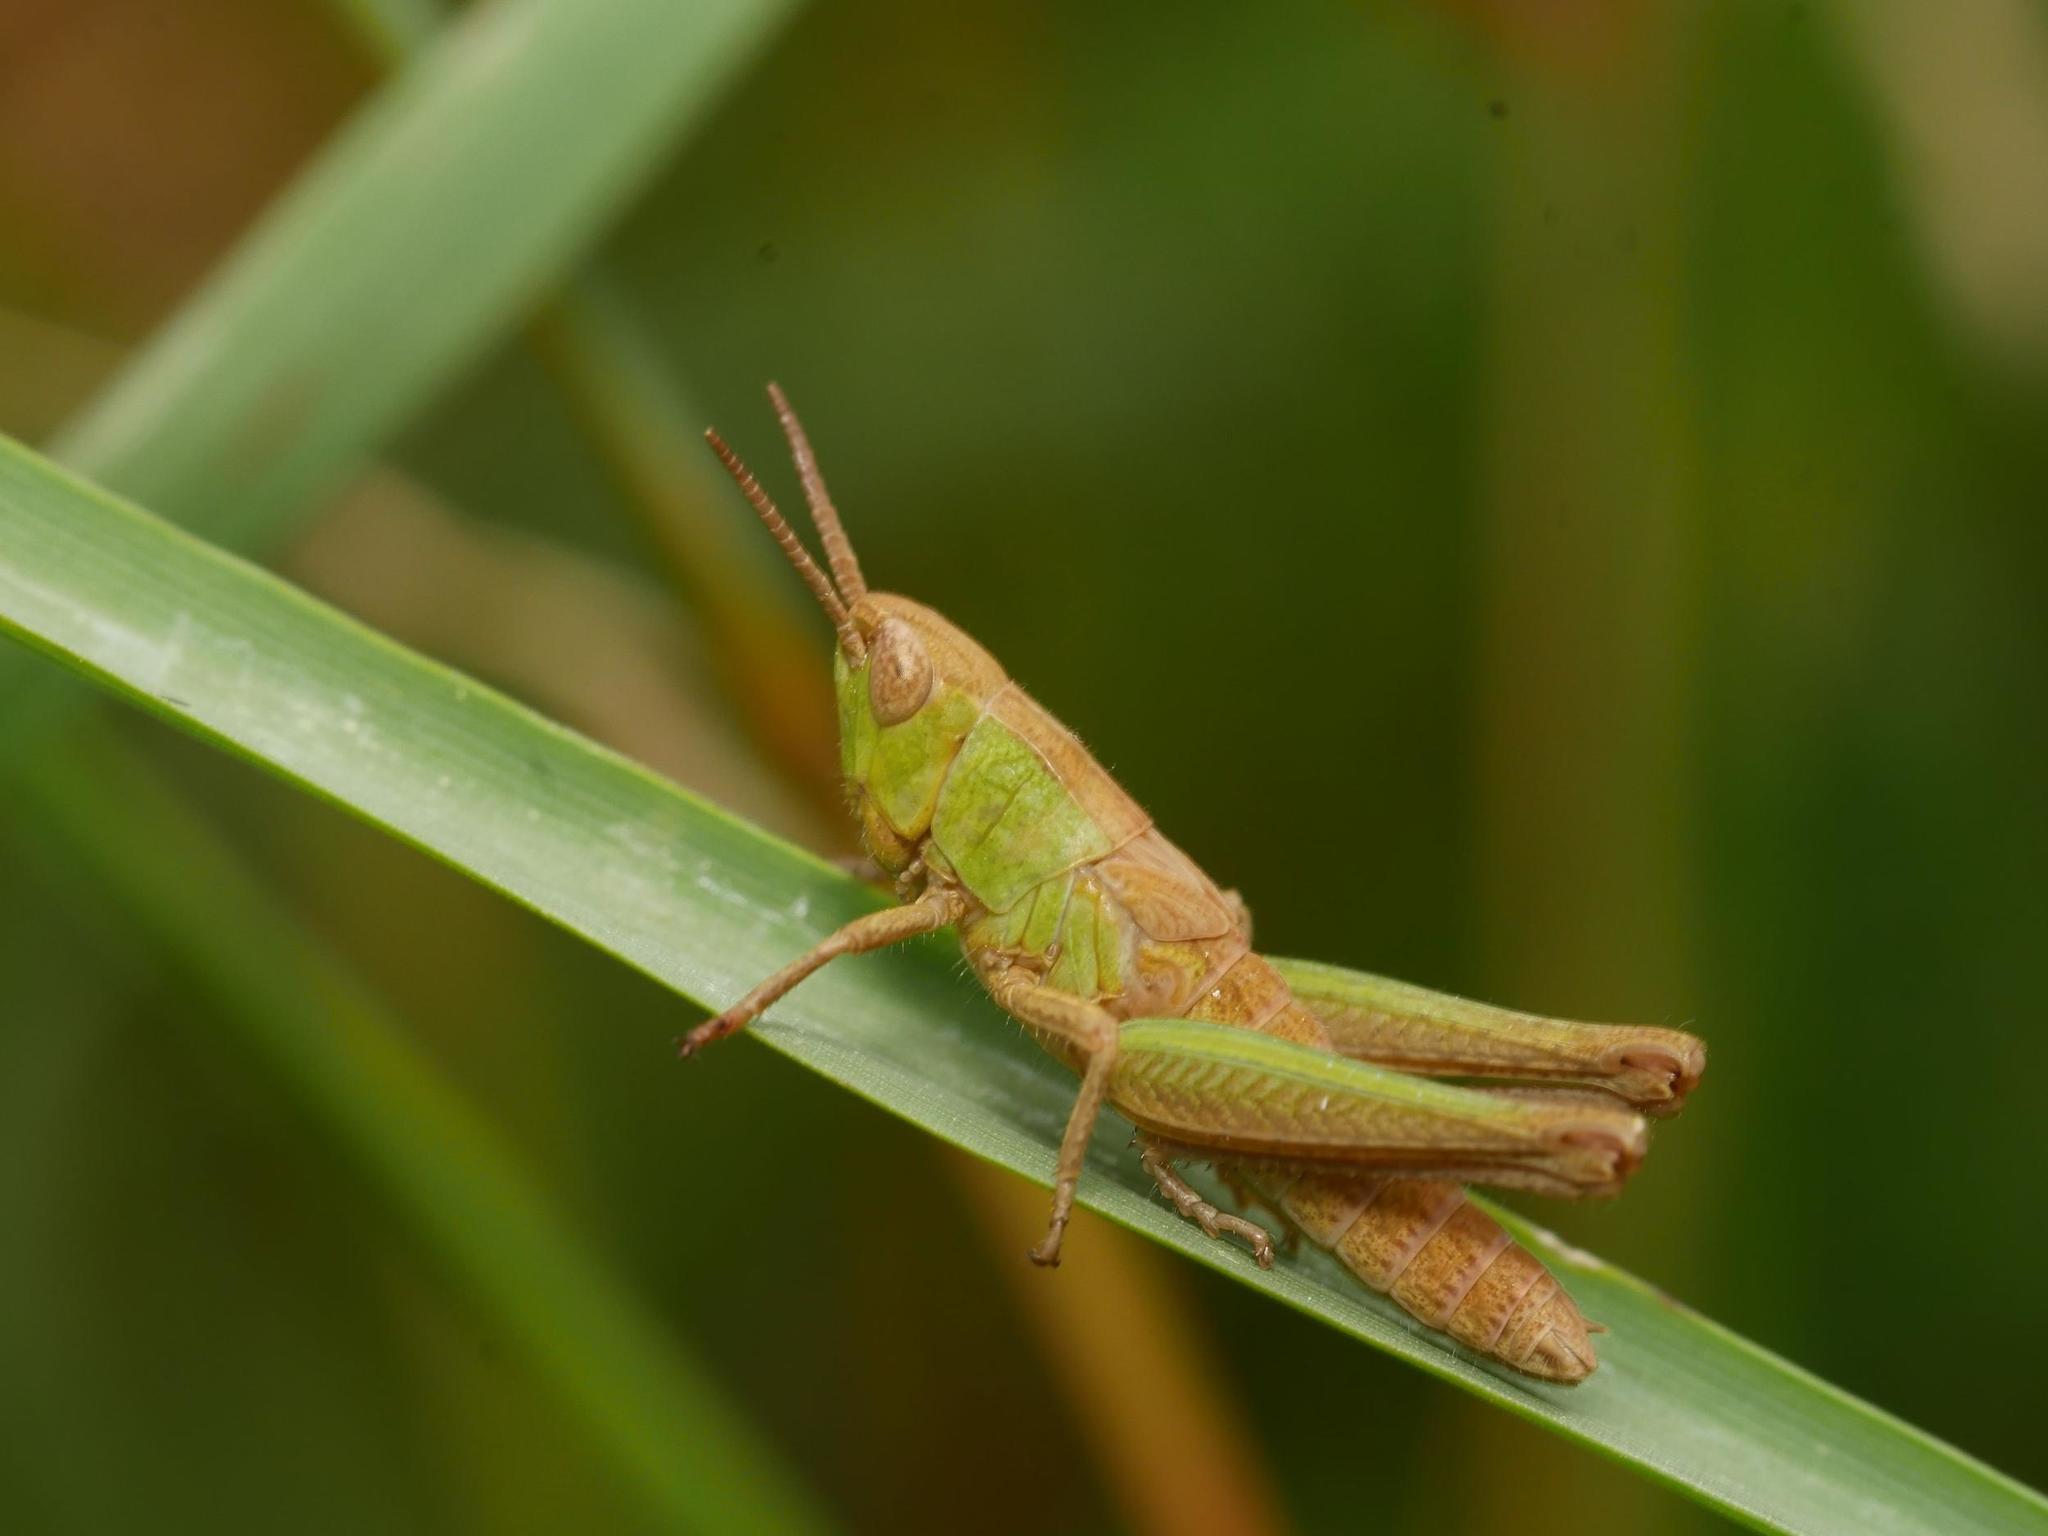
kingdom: Animalia
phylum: Arthropoda
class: Insecta
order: Orthoptera
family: Acrididae
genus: Pseudochorthippus
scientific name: Pseudochorthippus parallelus
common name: Meadow grasshopper
